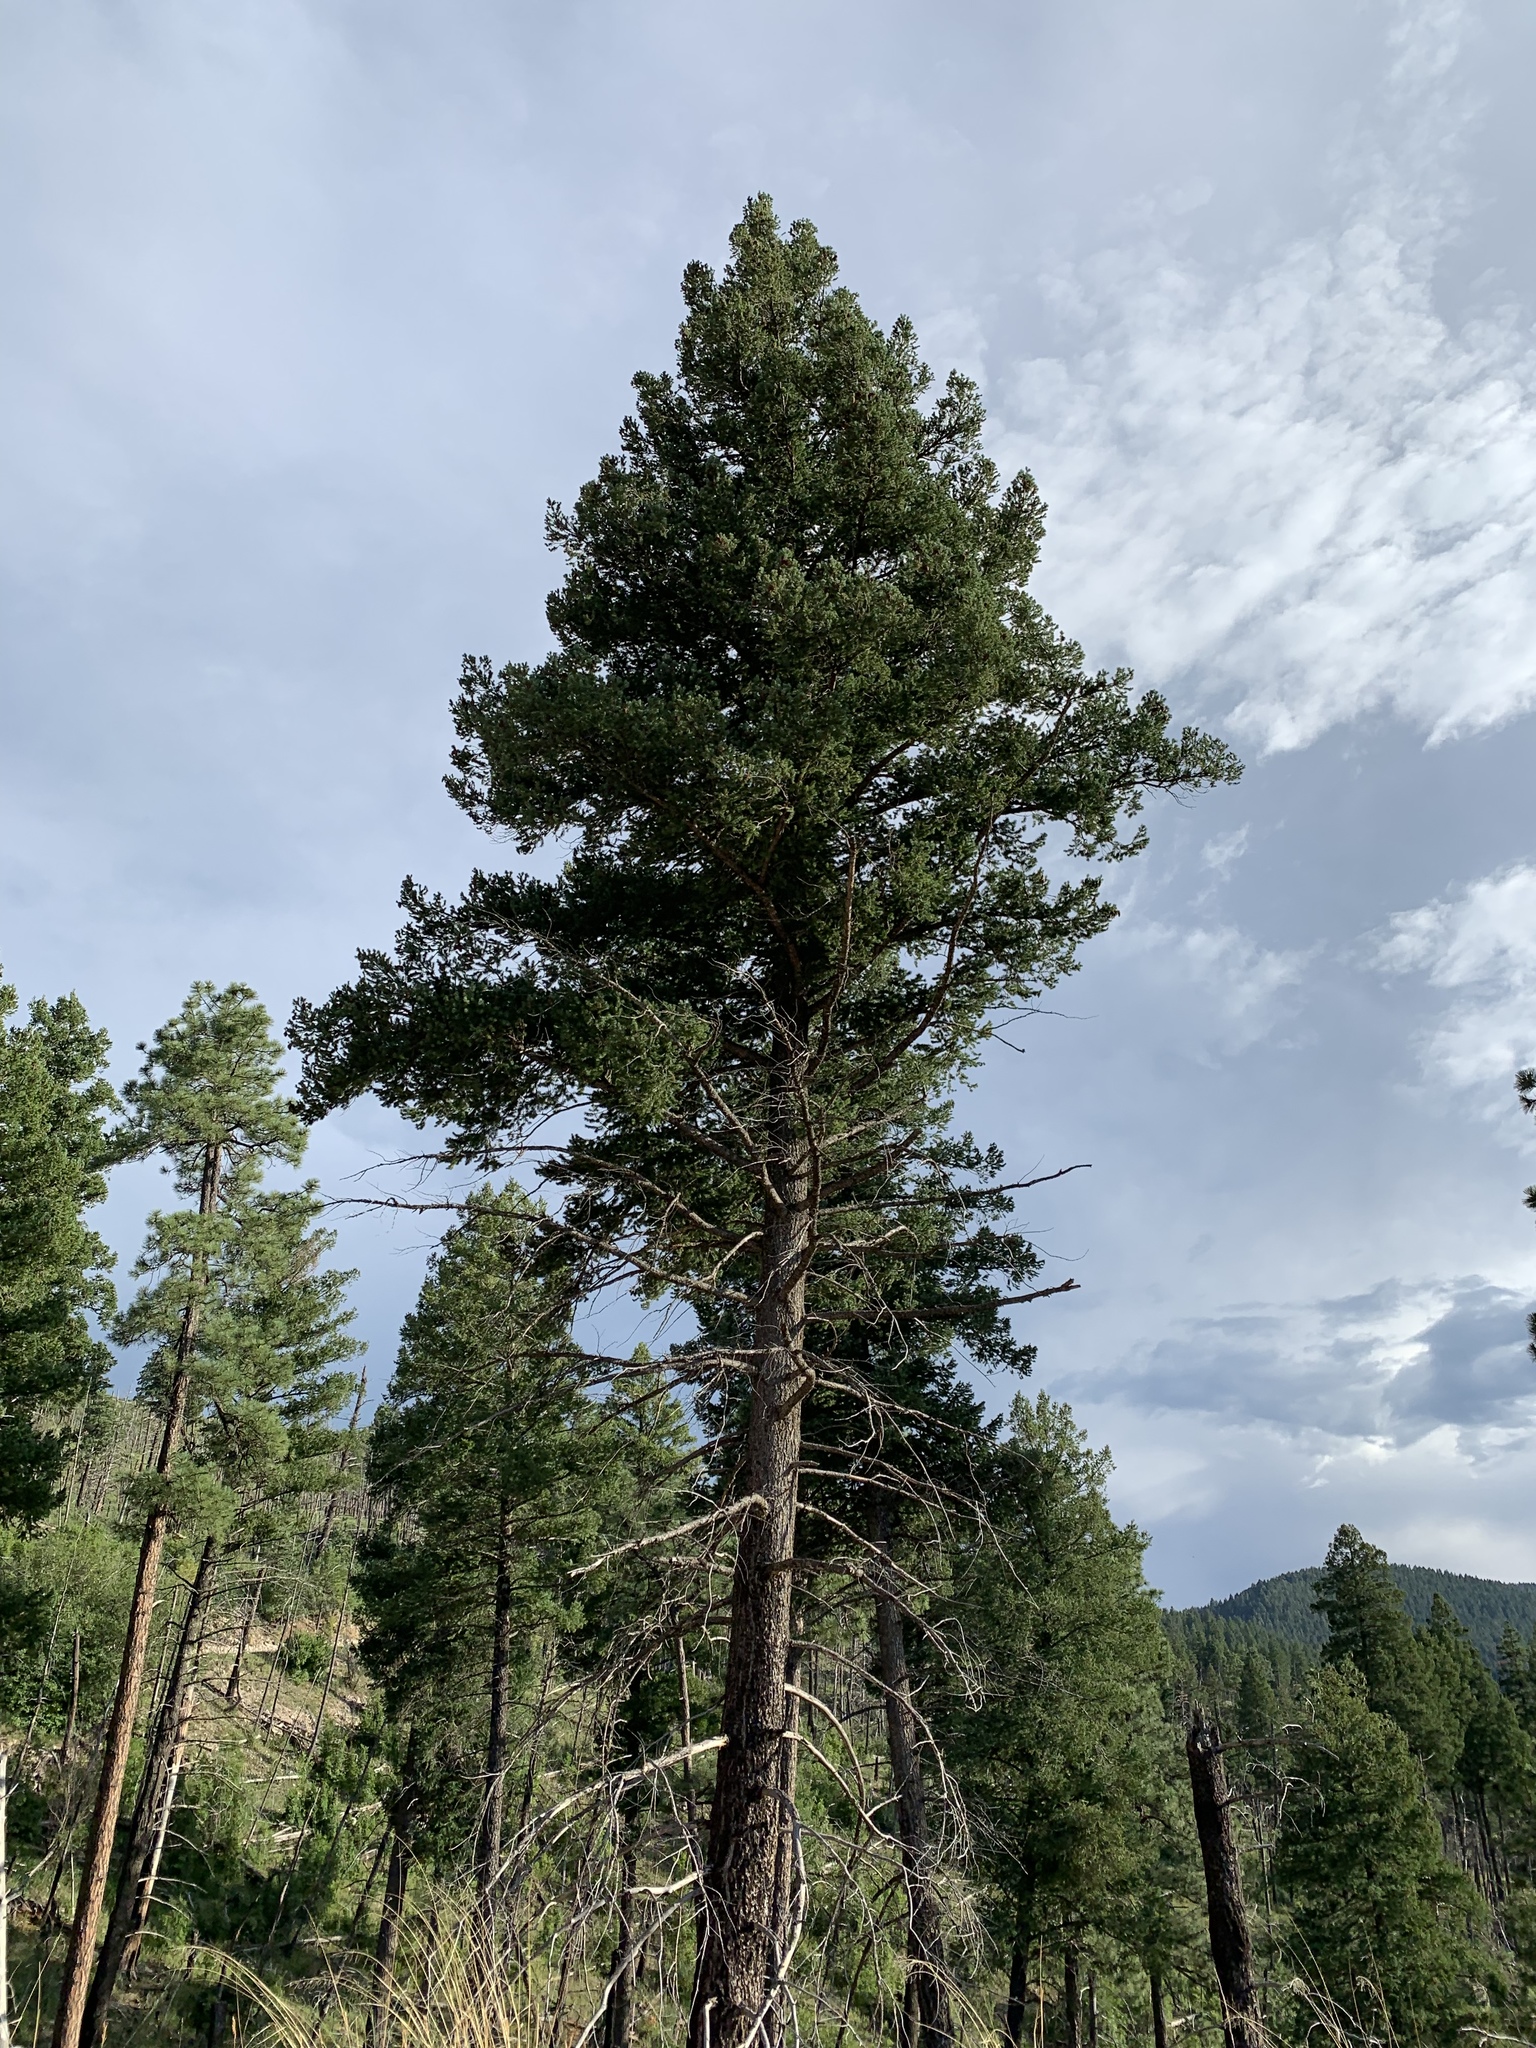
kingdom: Plantae
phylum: Tracheophyta
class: Pinopsida
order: Pinales
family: Pinaceae
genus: Pseudotsuga
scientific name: Pseudotsuga menziesii
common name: Douglas fir
